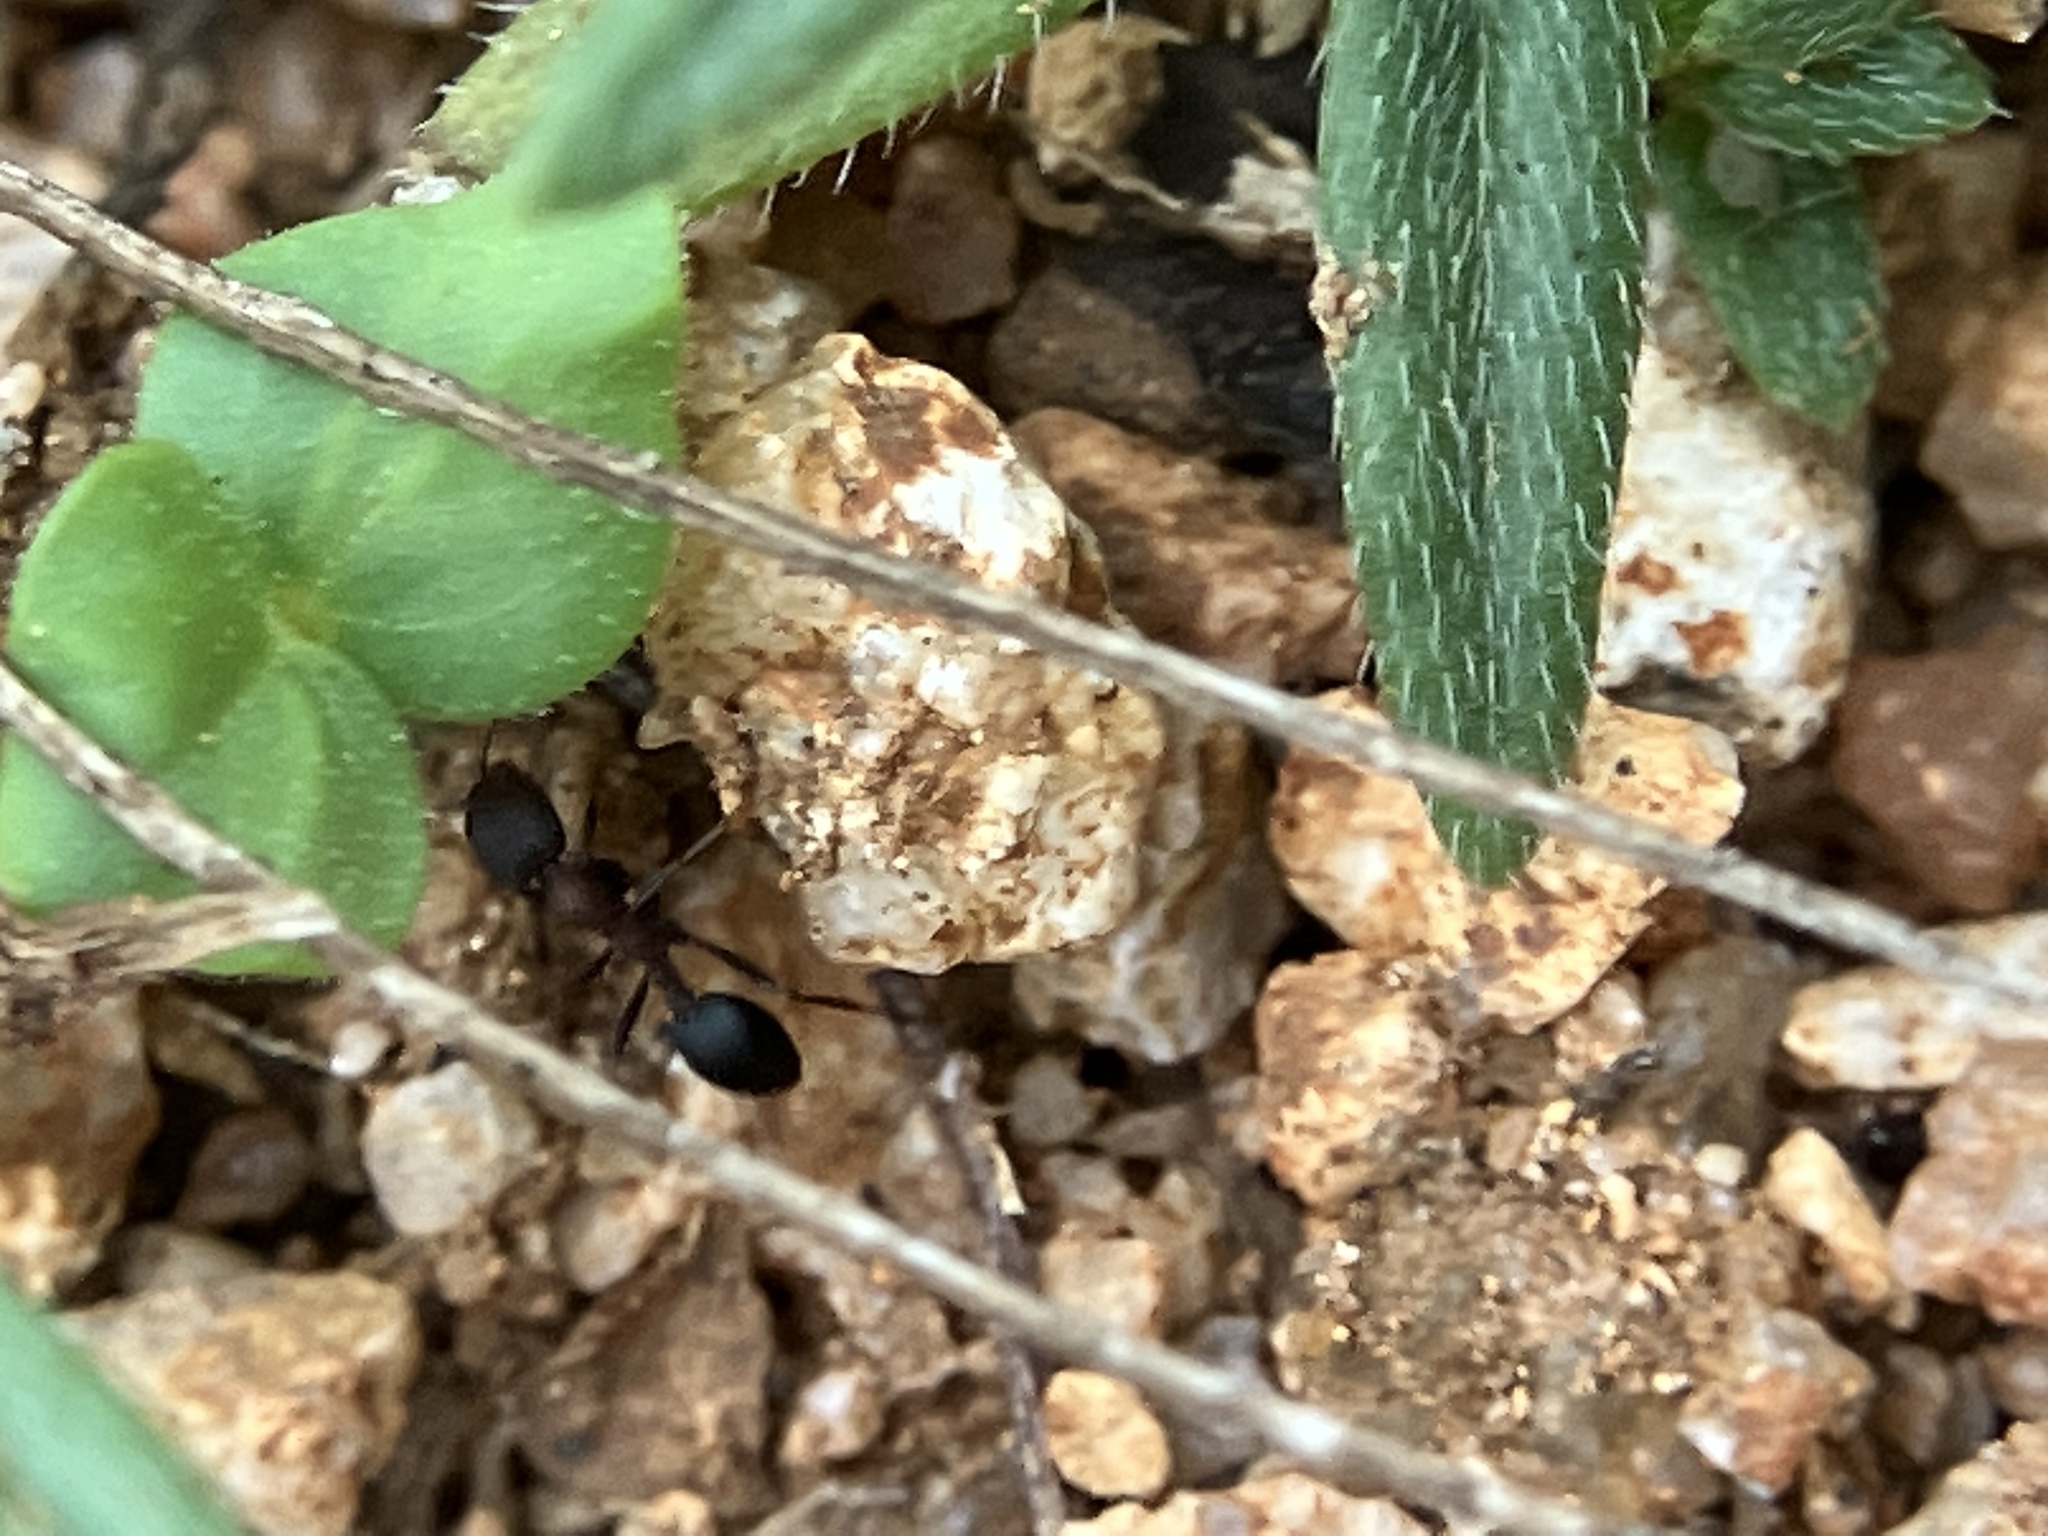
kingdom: Animalia
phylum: Arthropoda
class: Insecta
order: Hymenoptera
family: Formicidae
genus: Monomorium
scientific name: Monomorium indicum
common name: Ant
